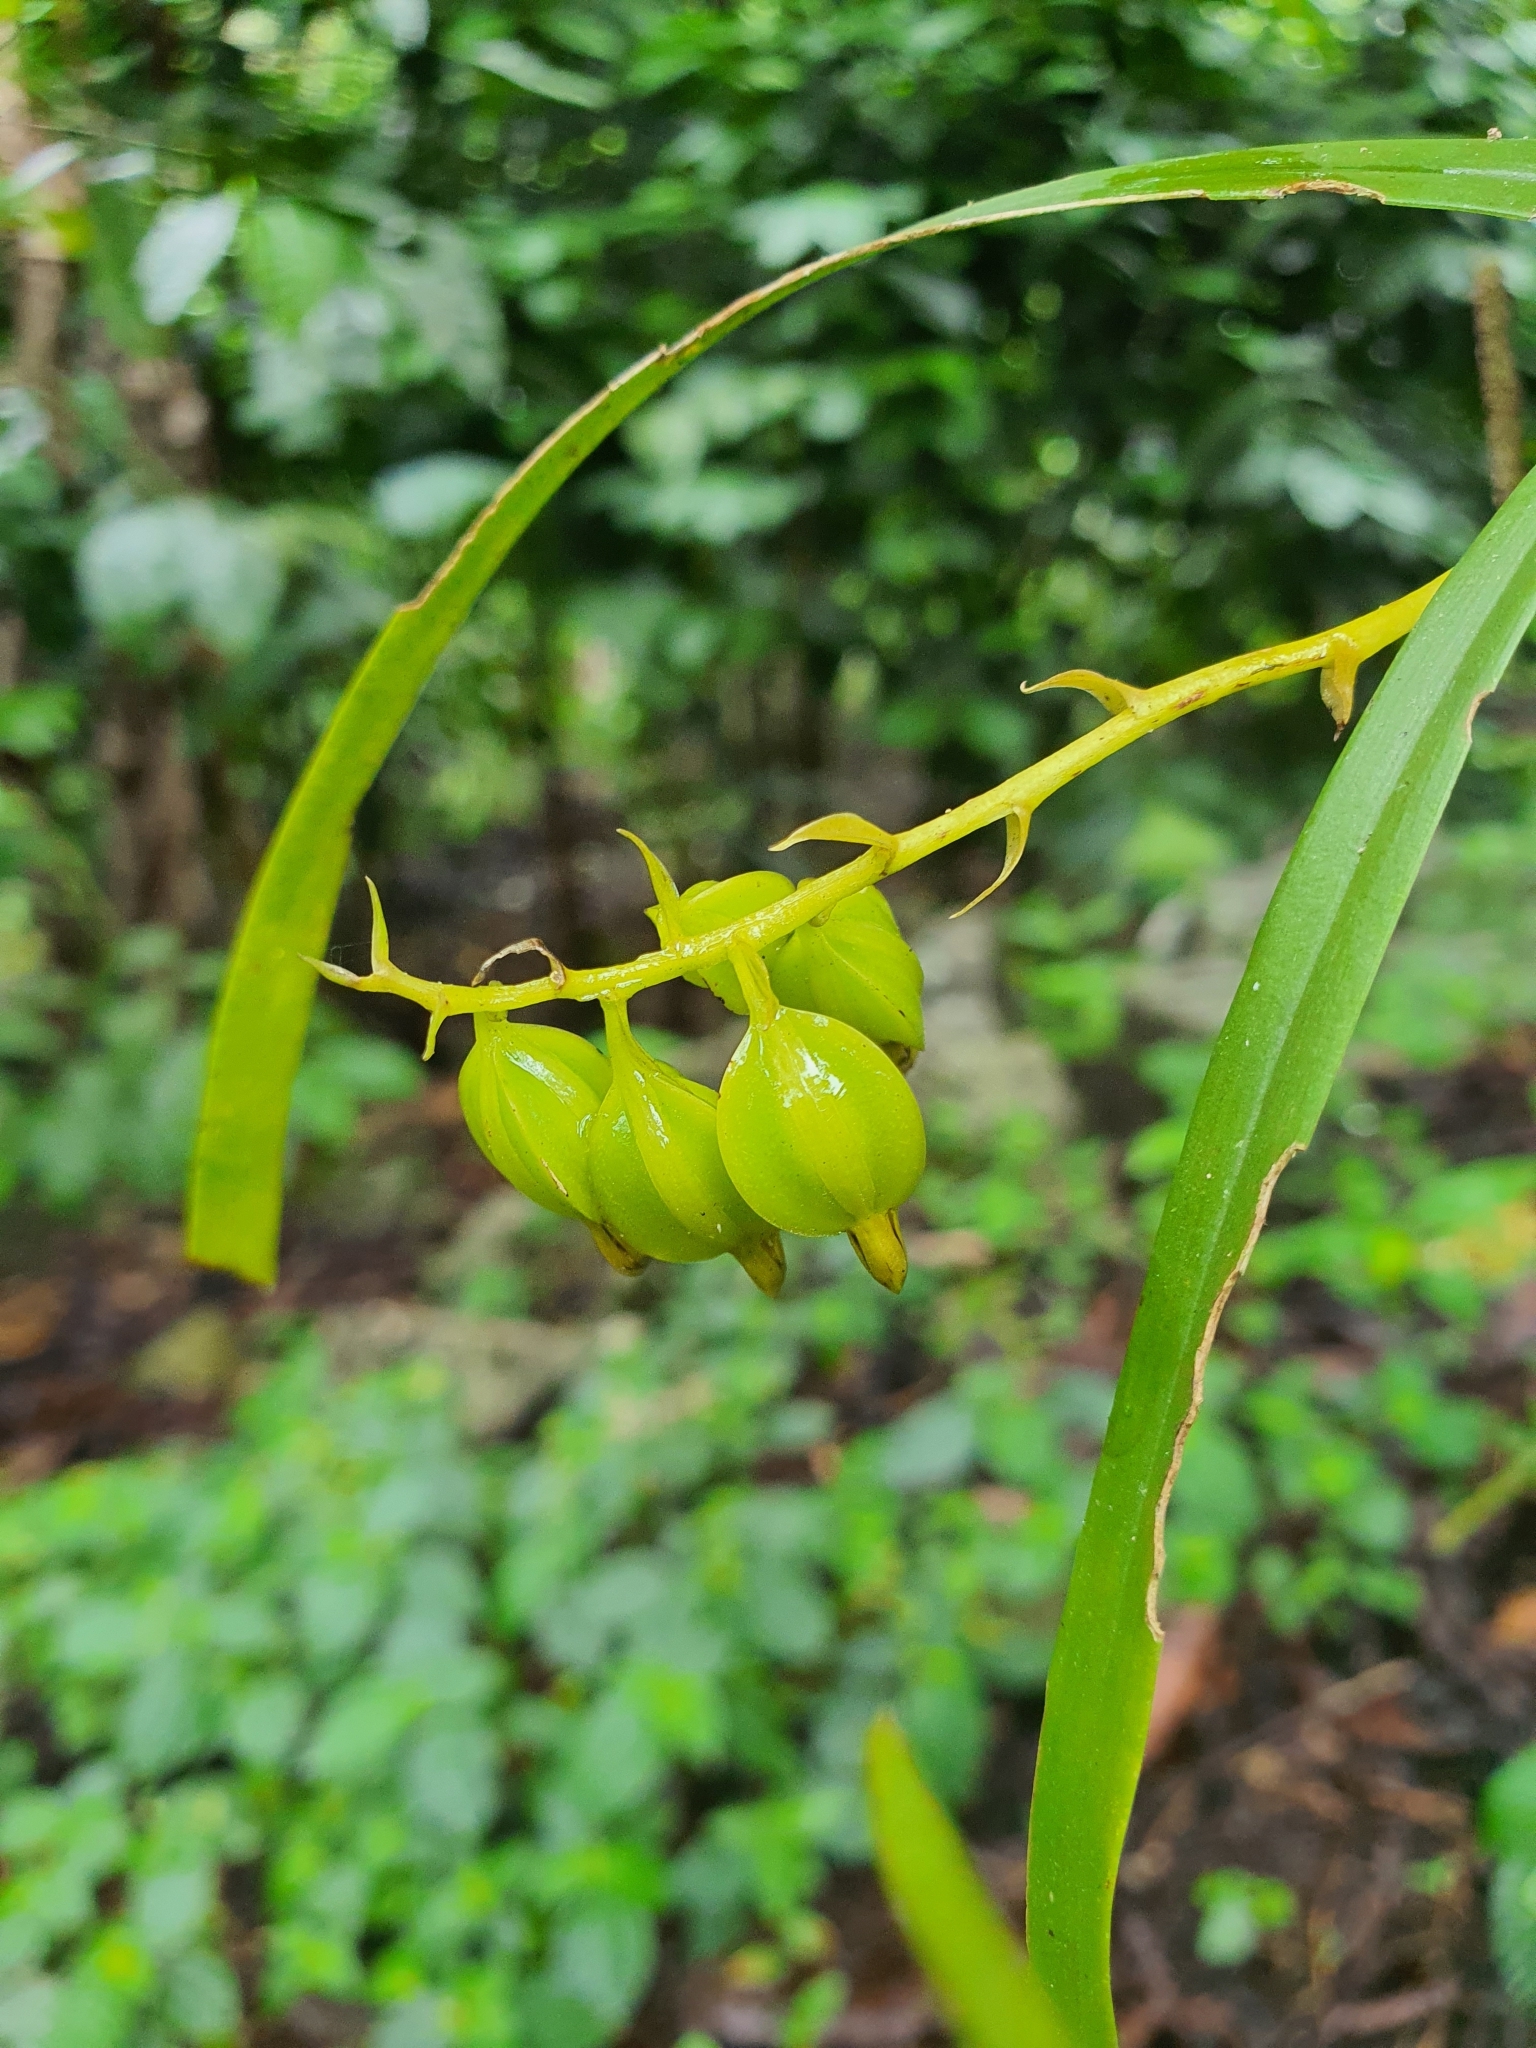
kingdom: Plantae
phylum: Tracheophyta
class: Liliopsida
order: Asparagales
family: Orchidaceae
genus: Prosthechea
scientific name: Prosthechea ochracea
